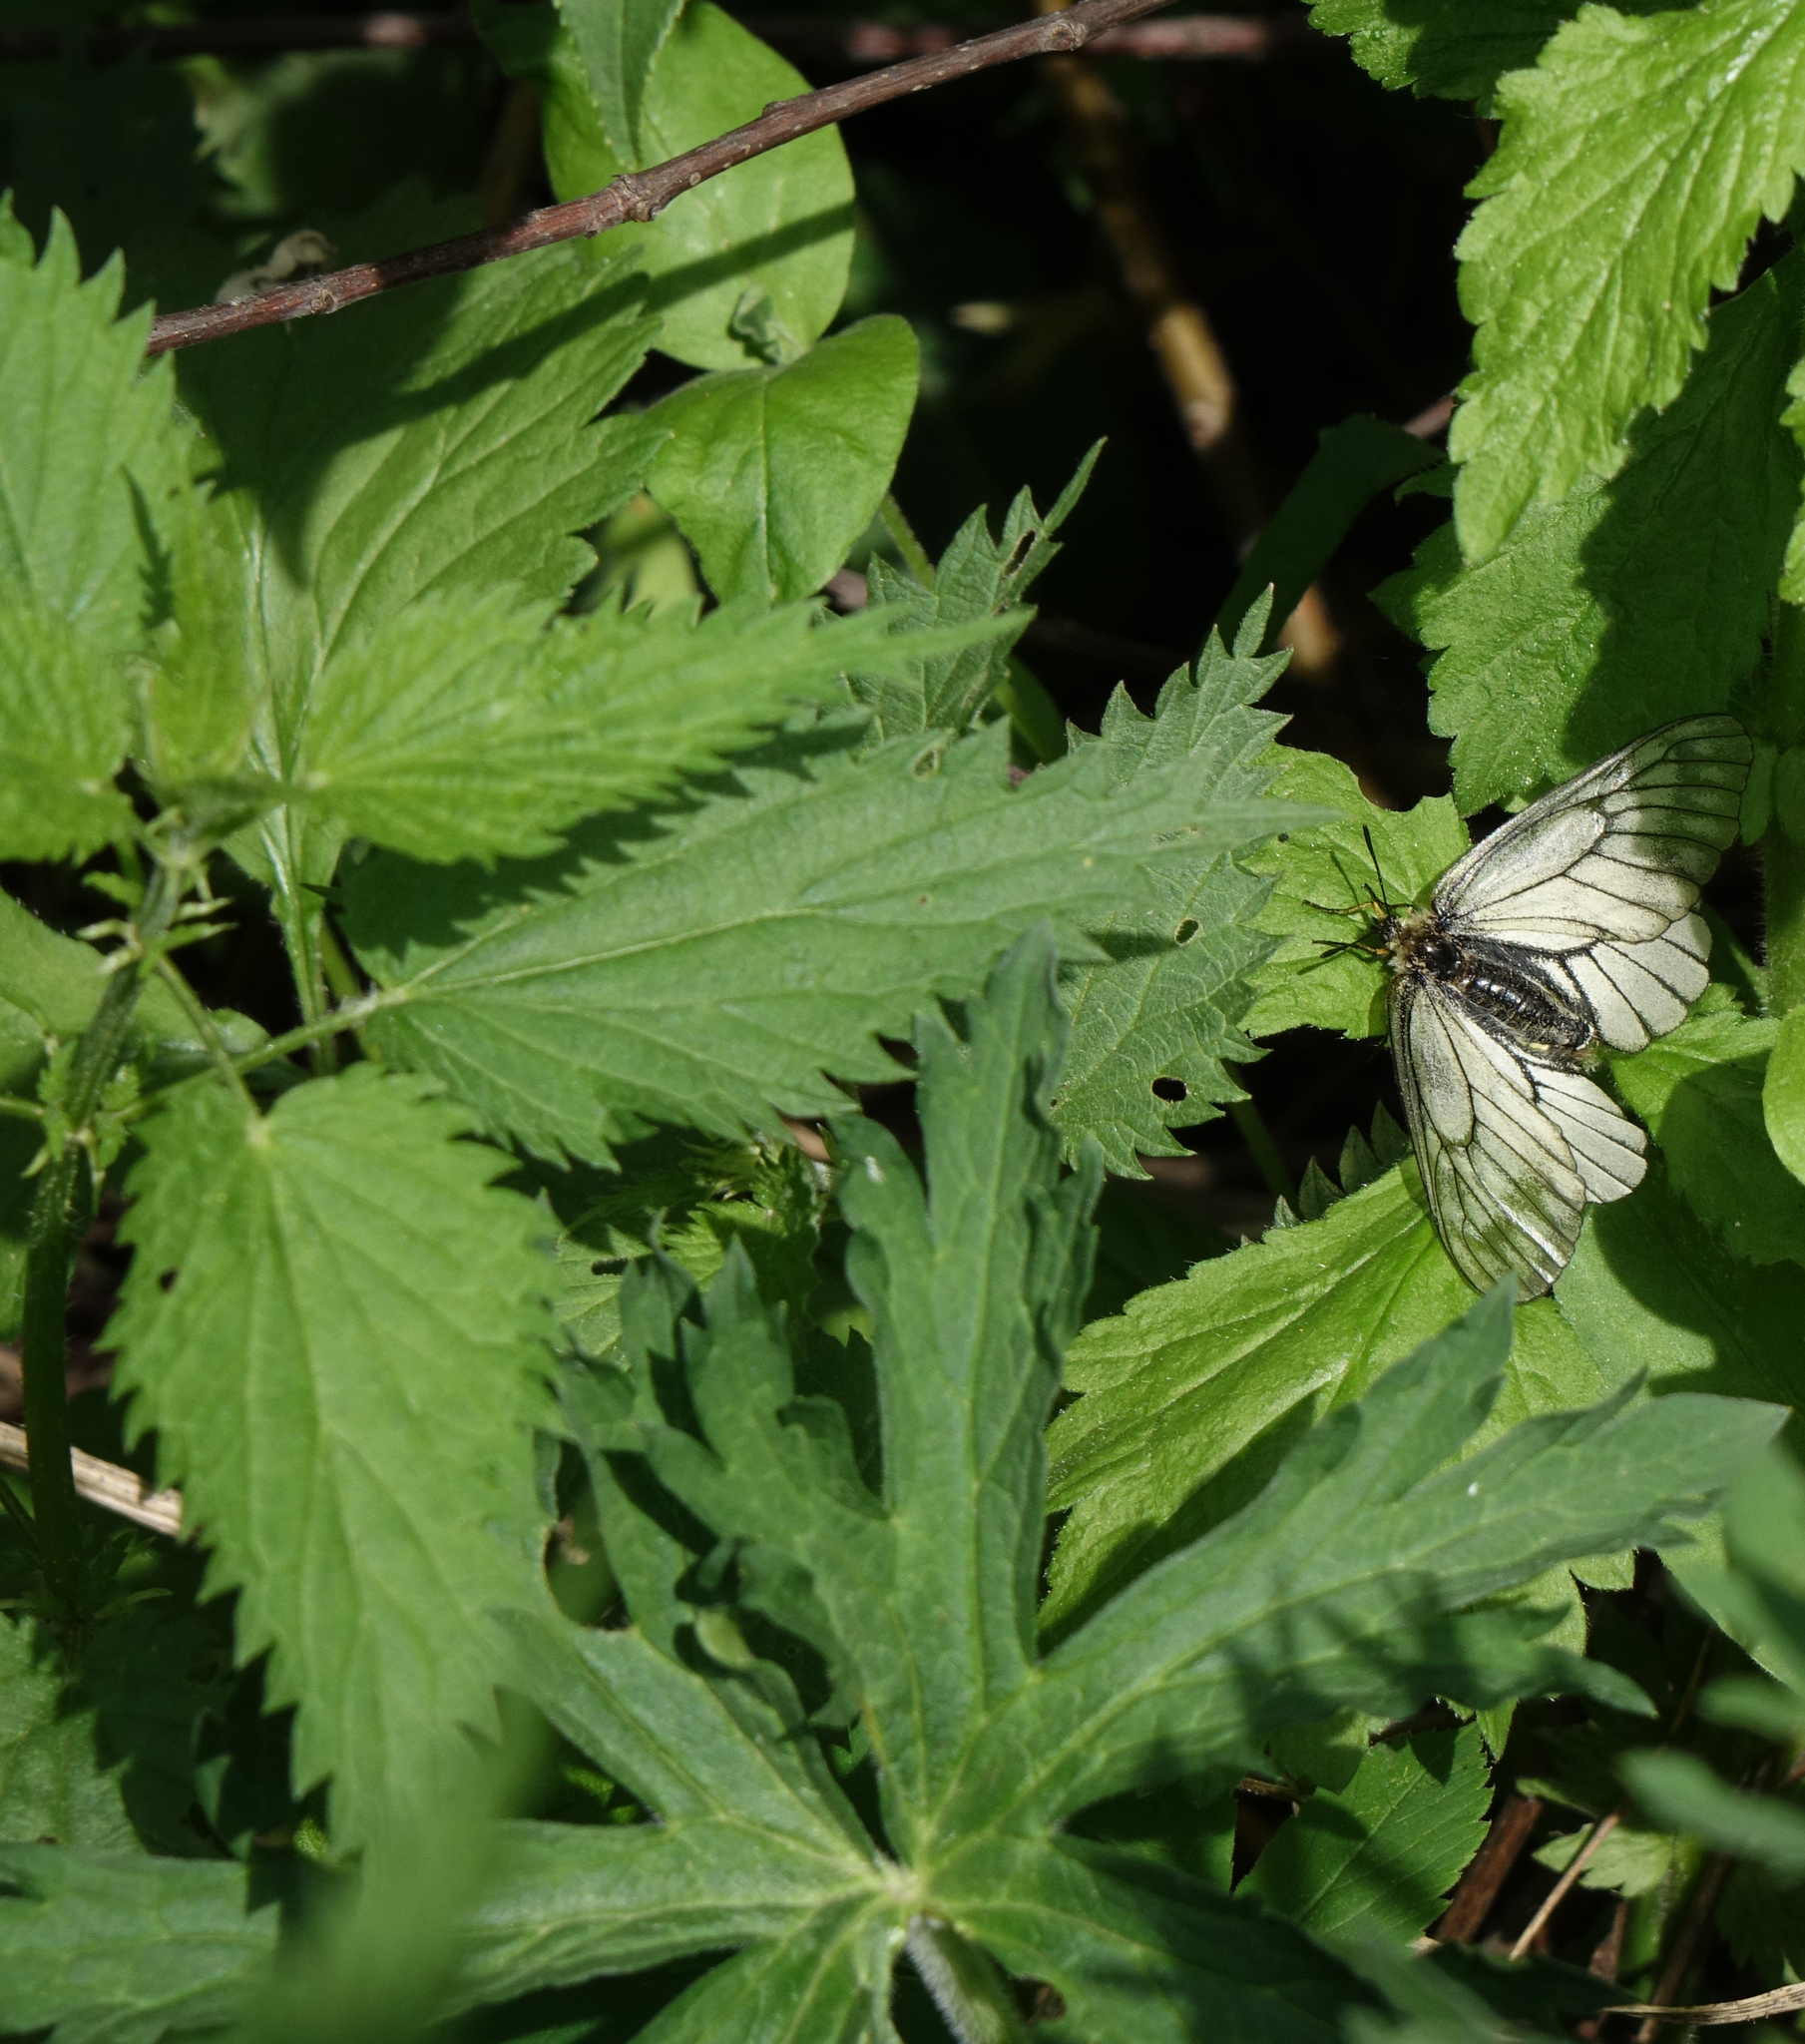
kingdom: Plantae
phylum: Tracheophyta
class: Magnoliopsida
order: Rosales
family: Urticaceae
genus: Urtica
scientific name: Urtica dioica
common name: Common nettle
